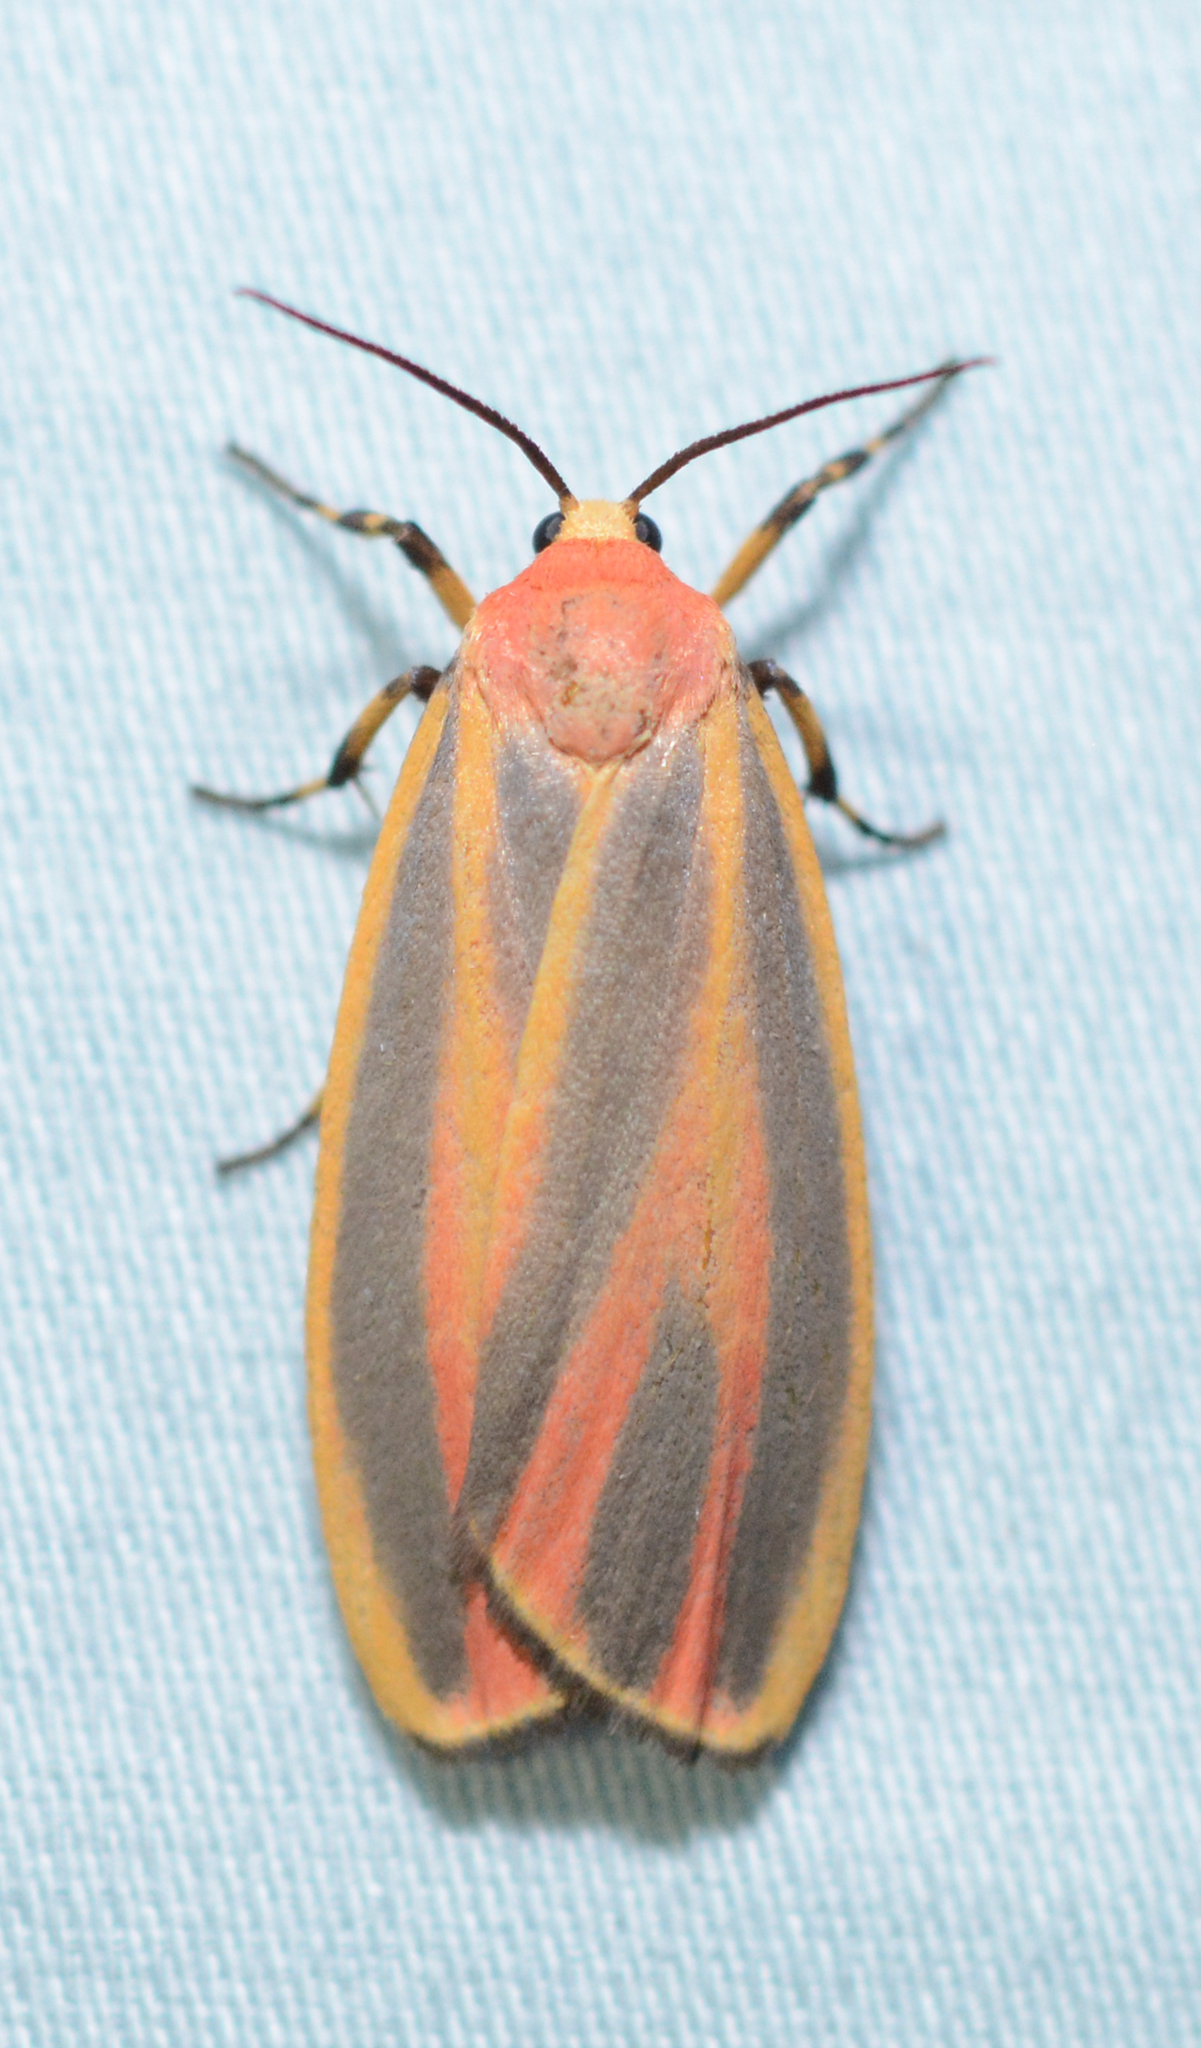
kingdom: Animalia
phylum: Arthropoda
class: Insecta
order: Lepidoptera
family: Erebidae
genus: Hypoprepia
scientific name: Hypoprepia fucosa
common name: Painted lichen moth
